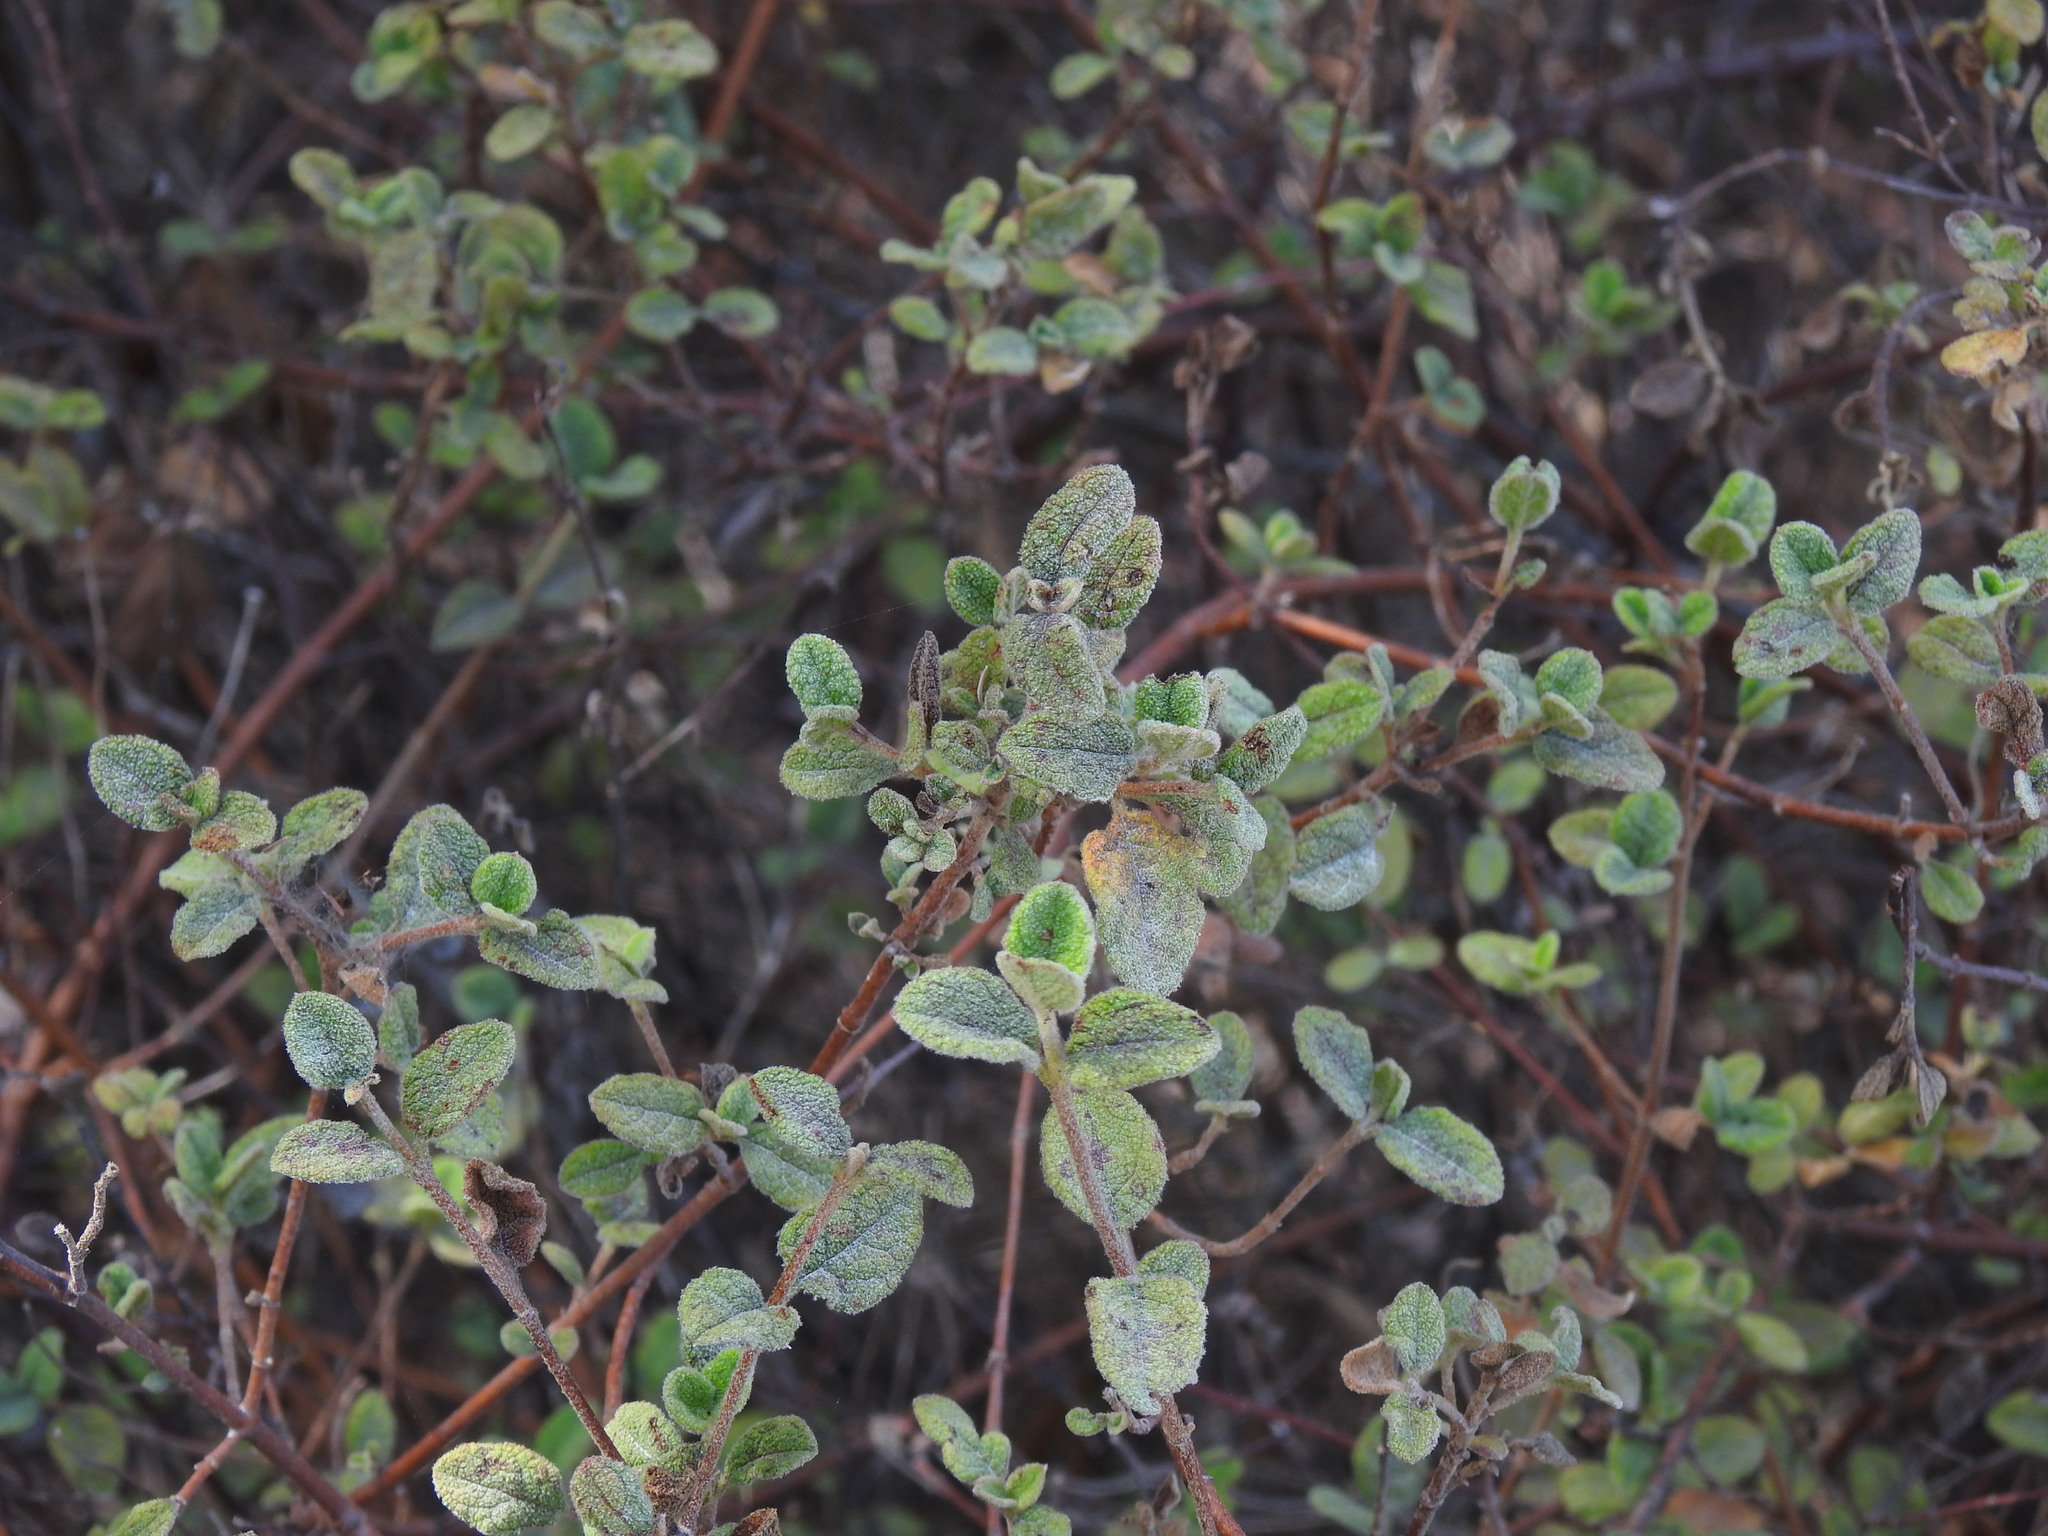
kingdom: Plantae
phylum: Tracheophyta
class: Magnoliopsida
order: Malvales
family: Cistaceae
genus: Cistus
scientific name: Cistus salviifolius
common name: Salvia cistus
